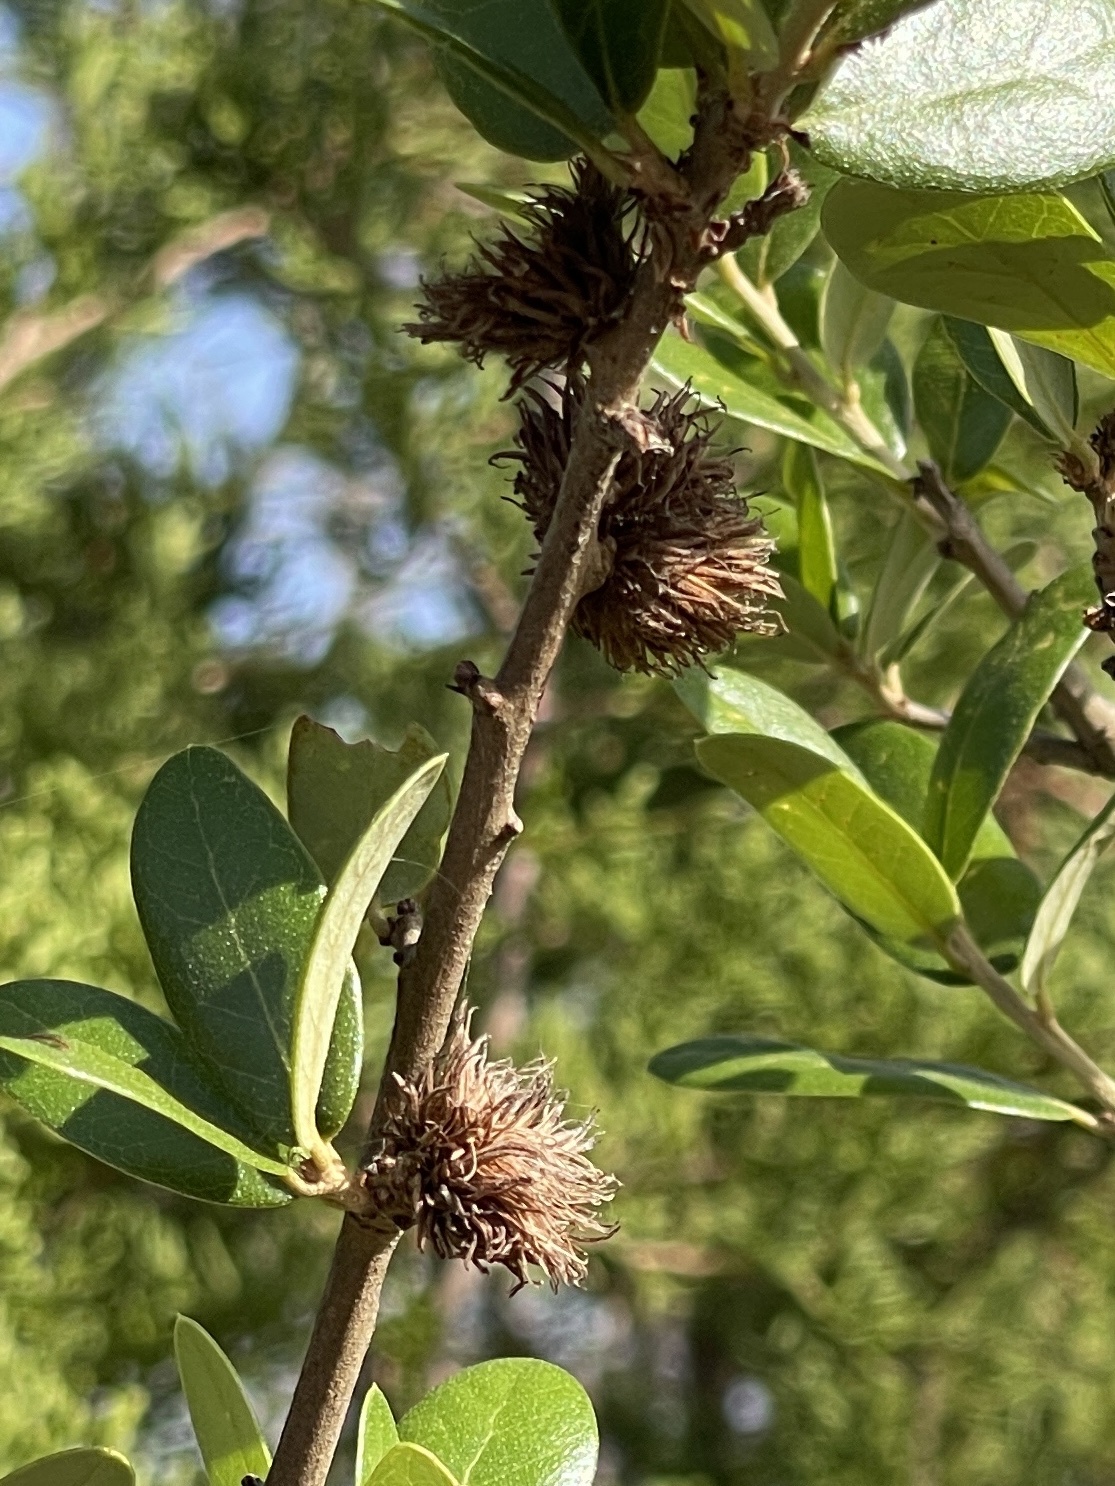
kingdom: Animalia
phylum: Arthropoda
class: Insecta
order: Hymenoptera
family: Cynipidae
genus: Andricus
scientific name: Andricus quercusfoliatus
